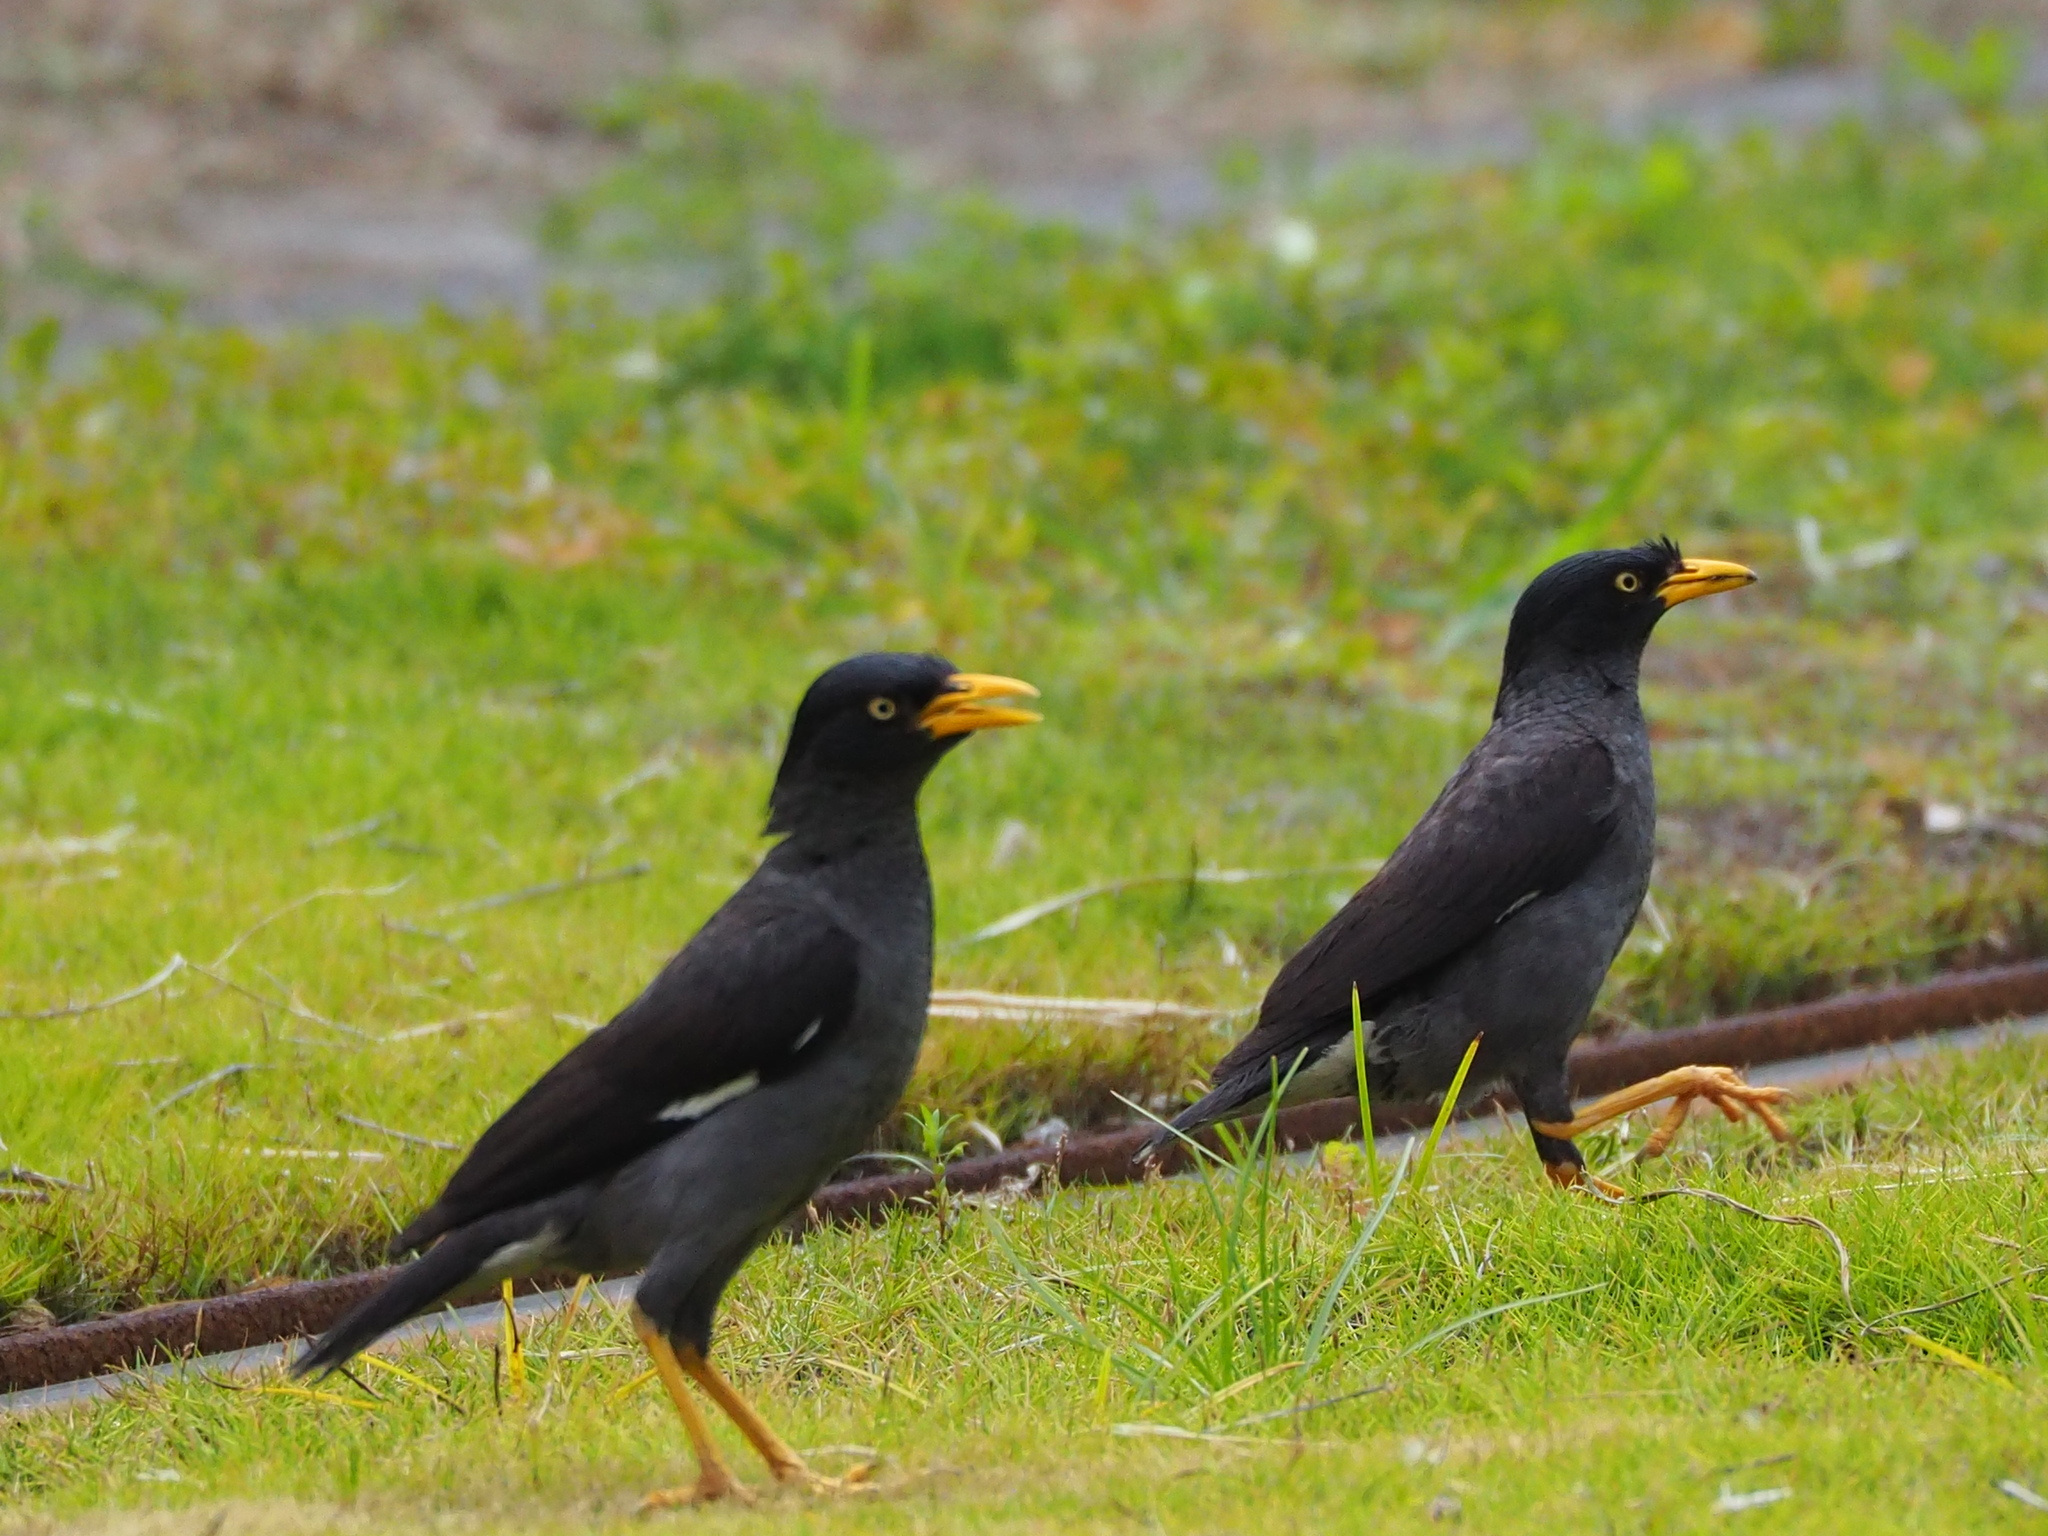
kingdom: Animalia
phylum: Chordata
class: Aves
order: Passeriformes
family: Sturnidae
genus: Acridotheres
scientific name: Acridotheres javanicus
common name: Javan myna
